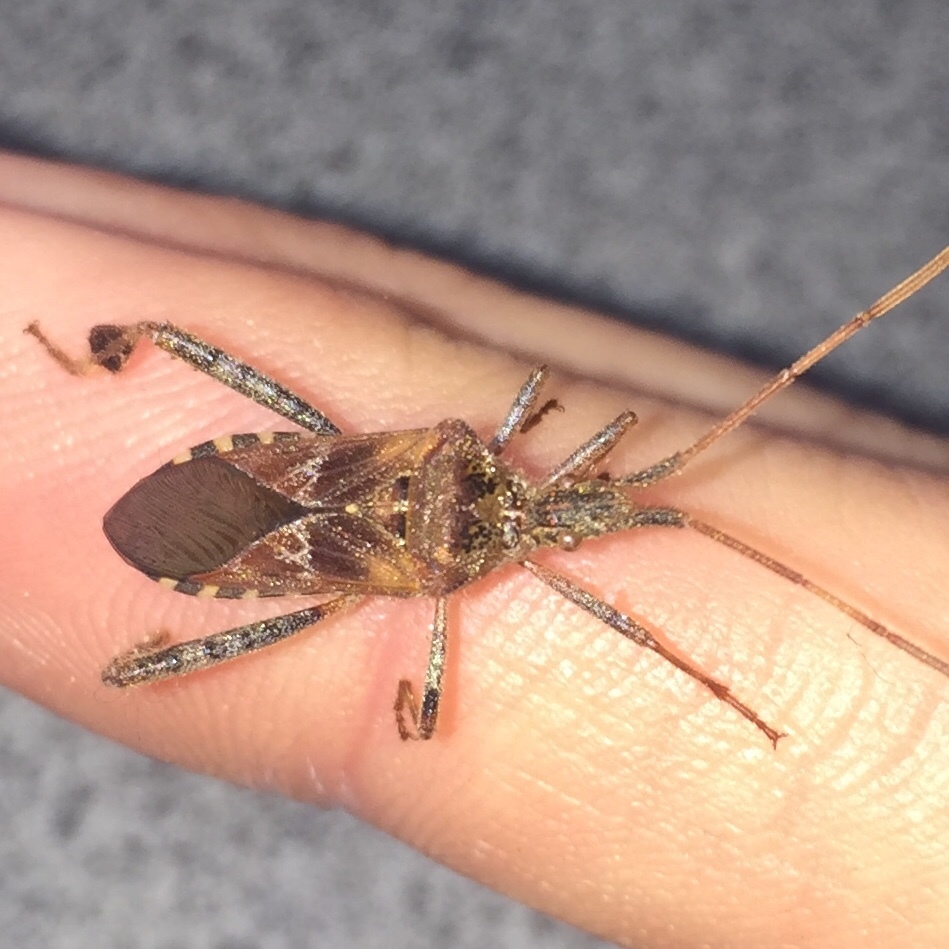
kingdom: Animalia
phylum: Arthropoda
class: Insecta
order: Hemiptera
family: Coreidae
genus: Leptoglossus
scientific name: Leptoglossus occidentalis
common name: Western conifer-seed bug
